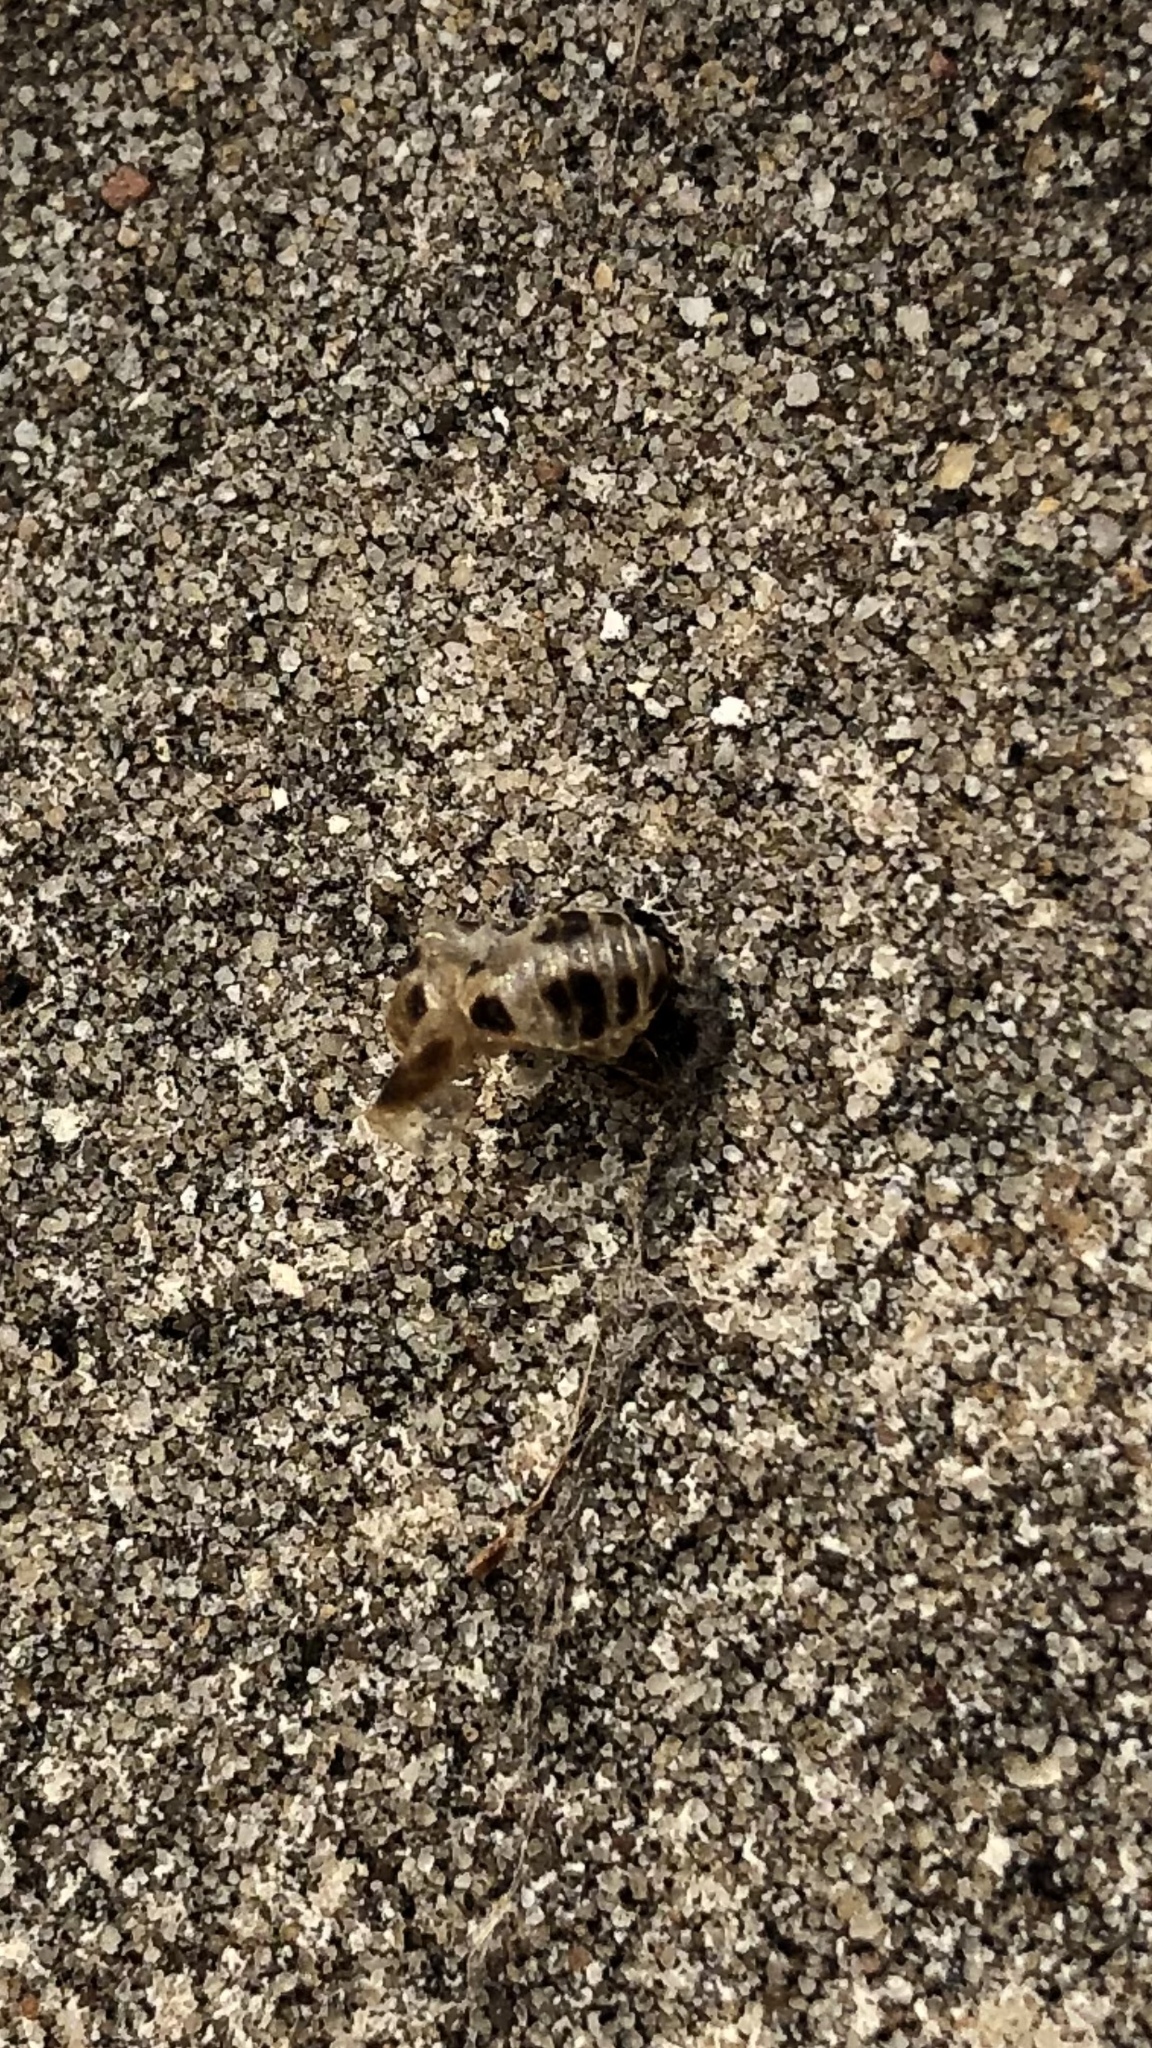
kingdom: Animalia
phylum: Arthropoda
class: Insecta
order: Coleoptera
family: Coccinellidae
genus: Harmonia
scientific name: Harmonia axyridis
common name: Harlequin ladybird
